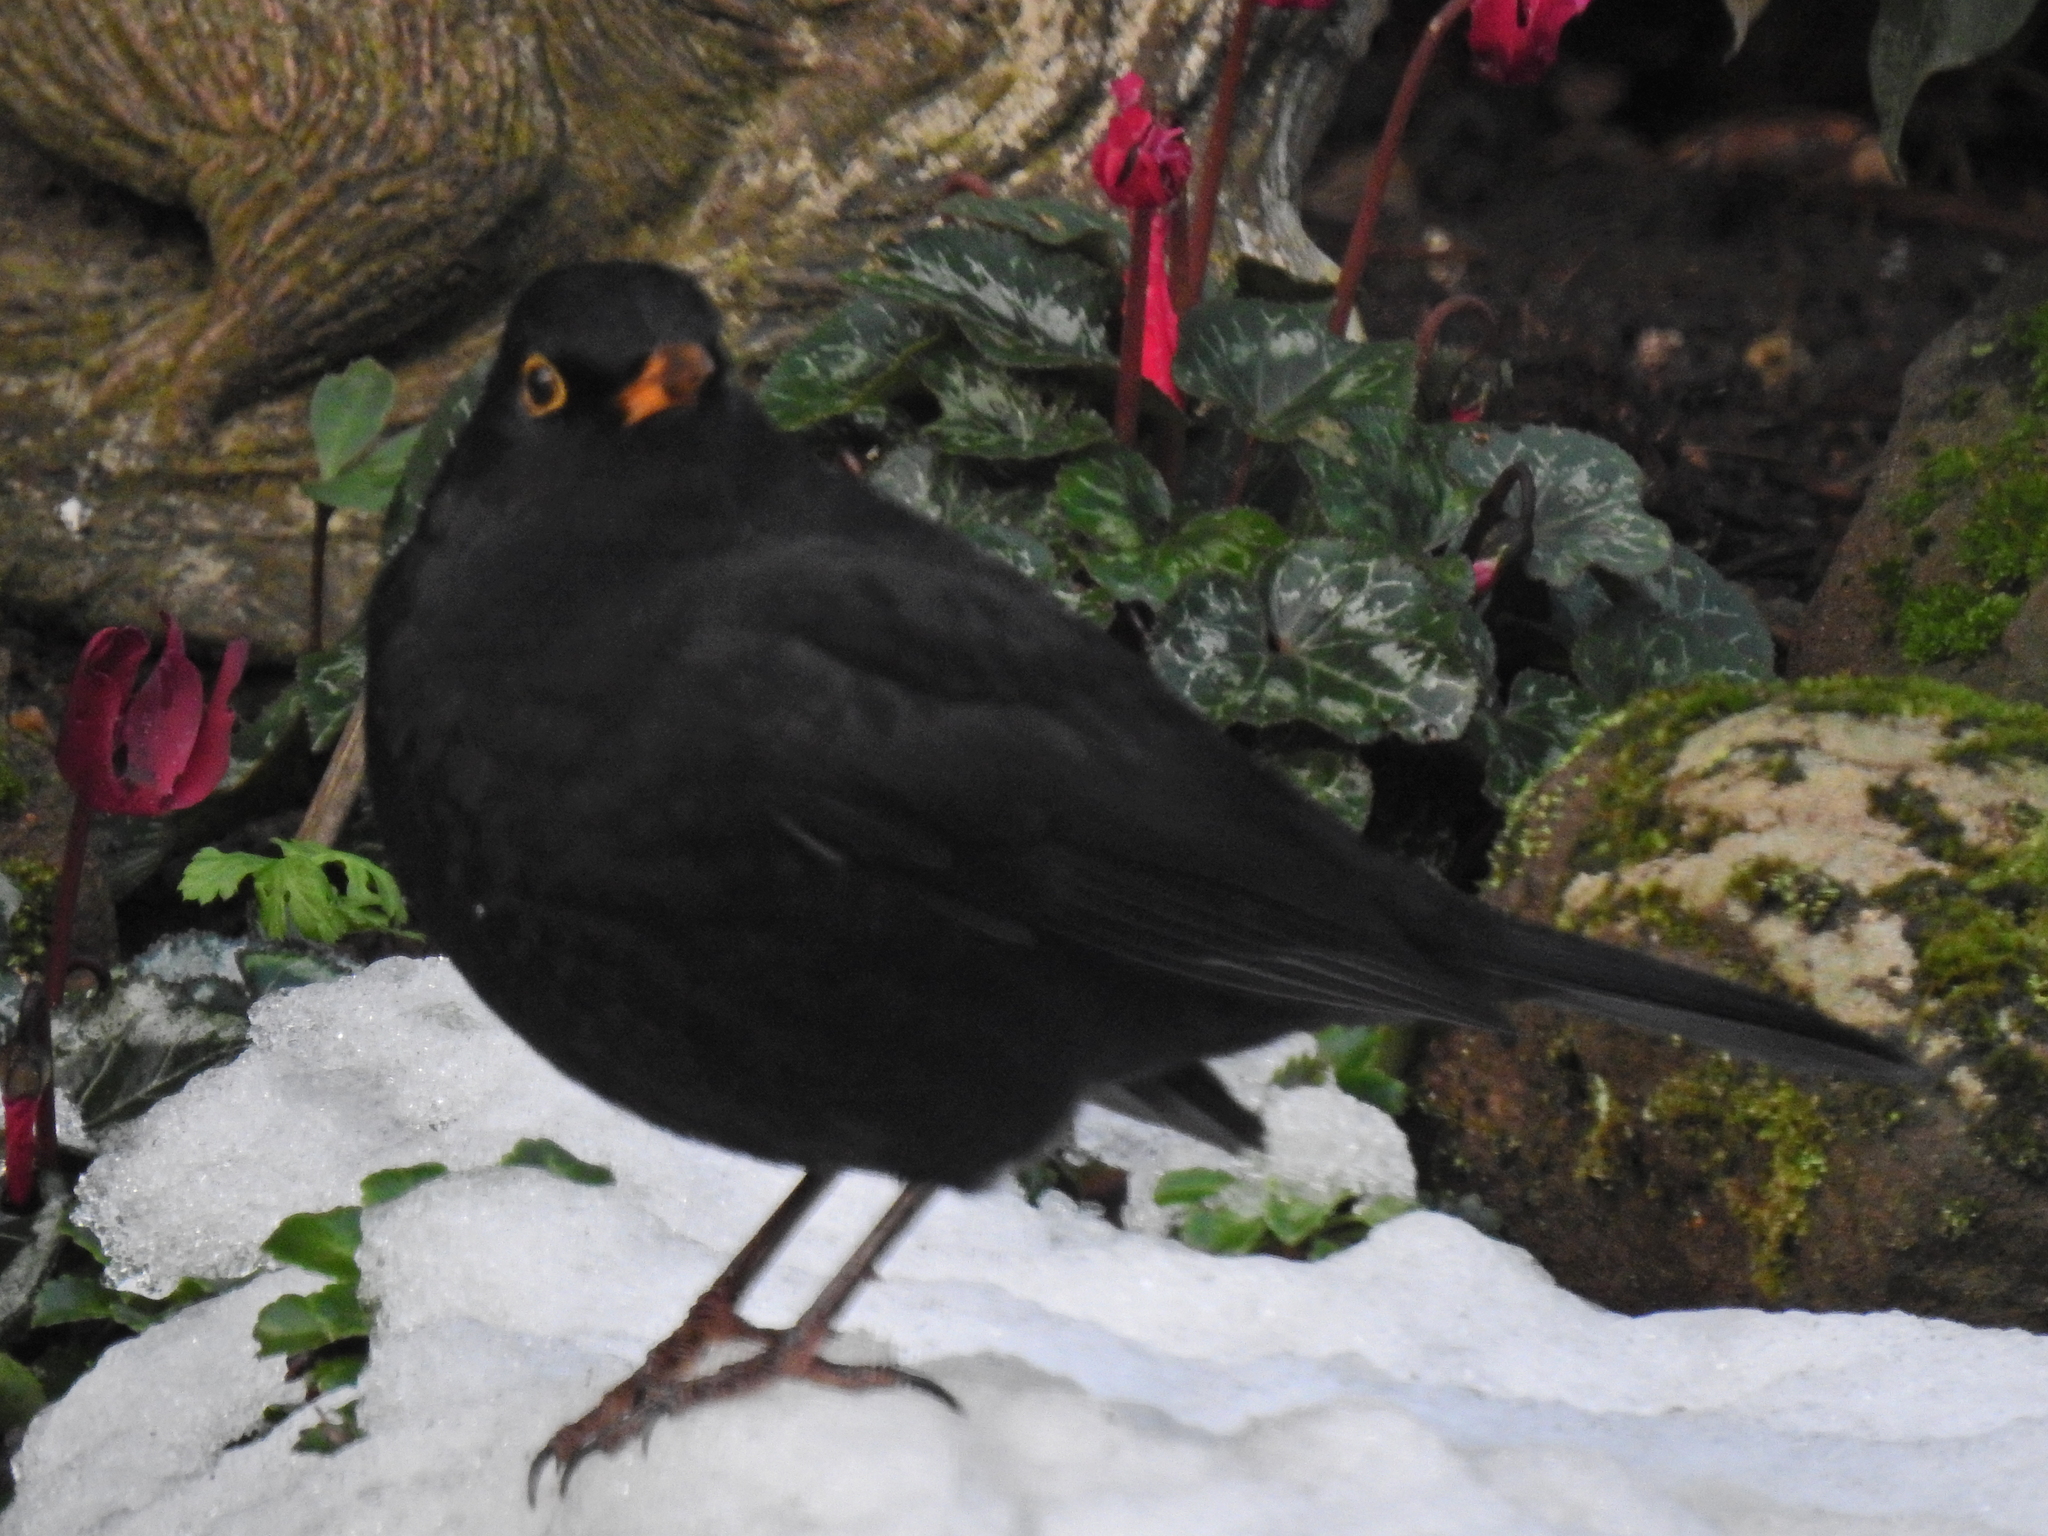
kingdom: Animalia
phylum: Chordata
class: Aves
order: Passeriformes
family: Turdidae
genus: Turdus
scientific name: Turdus merula
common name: Common blackbird
